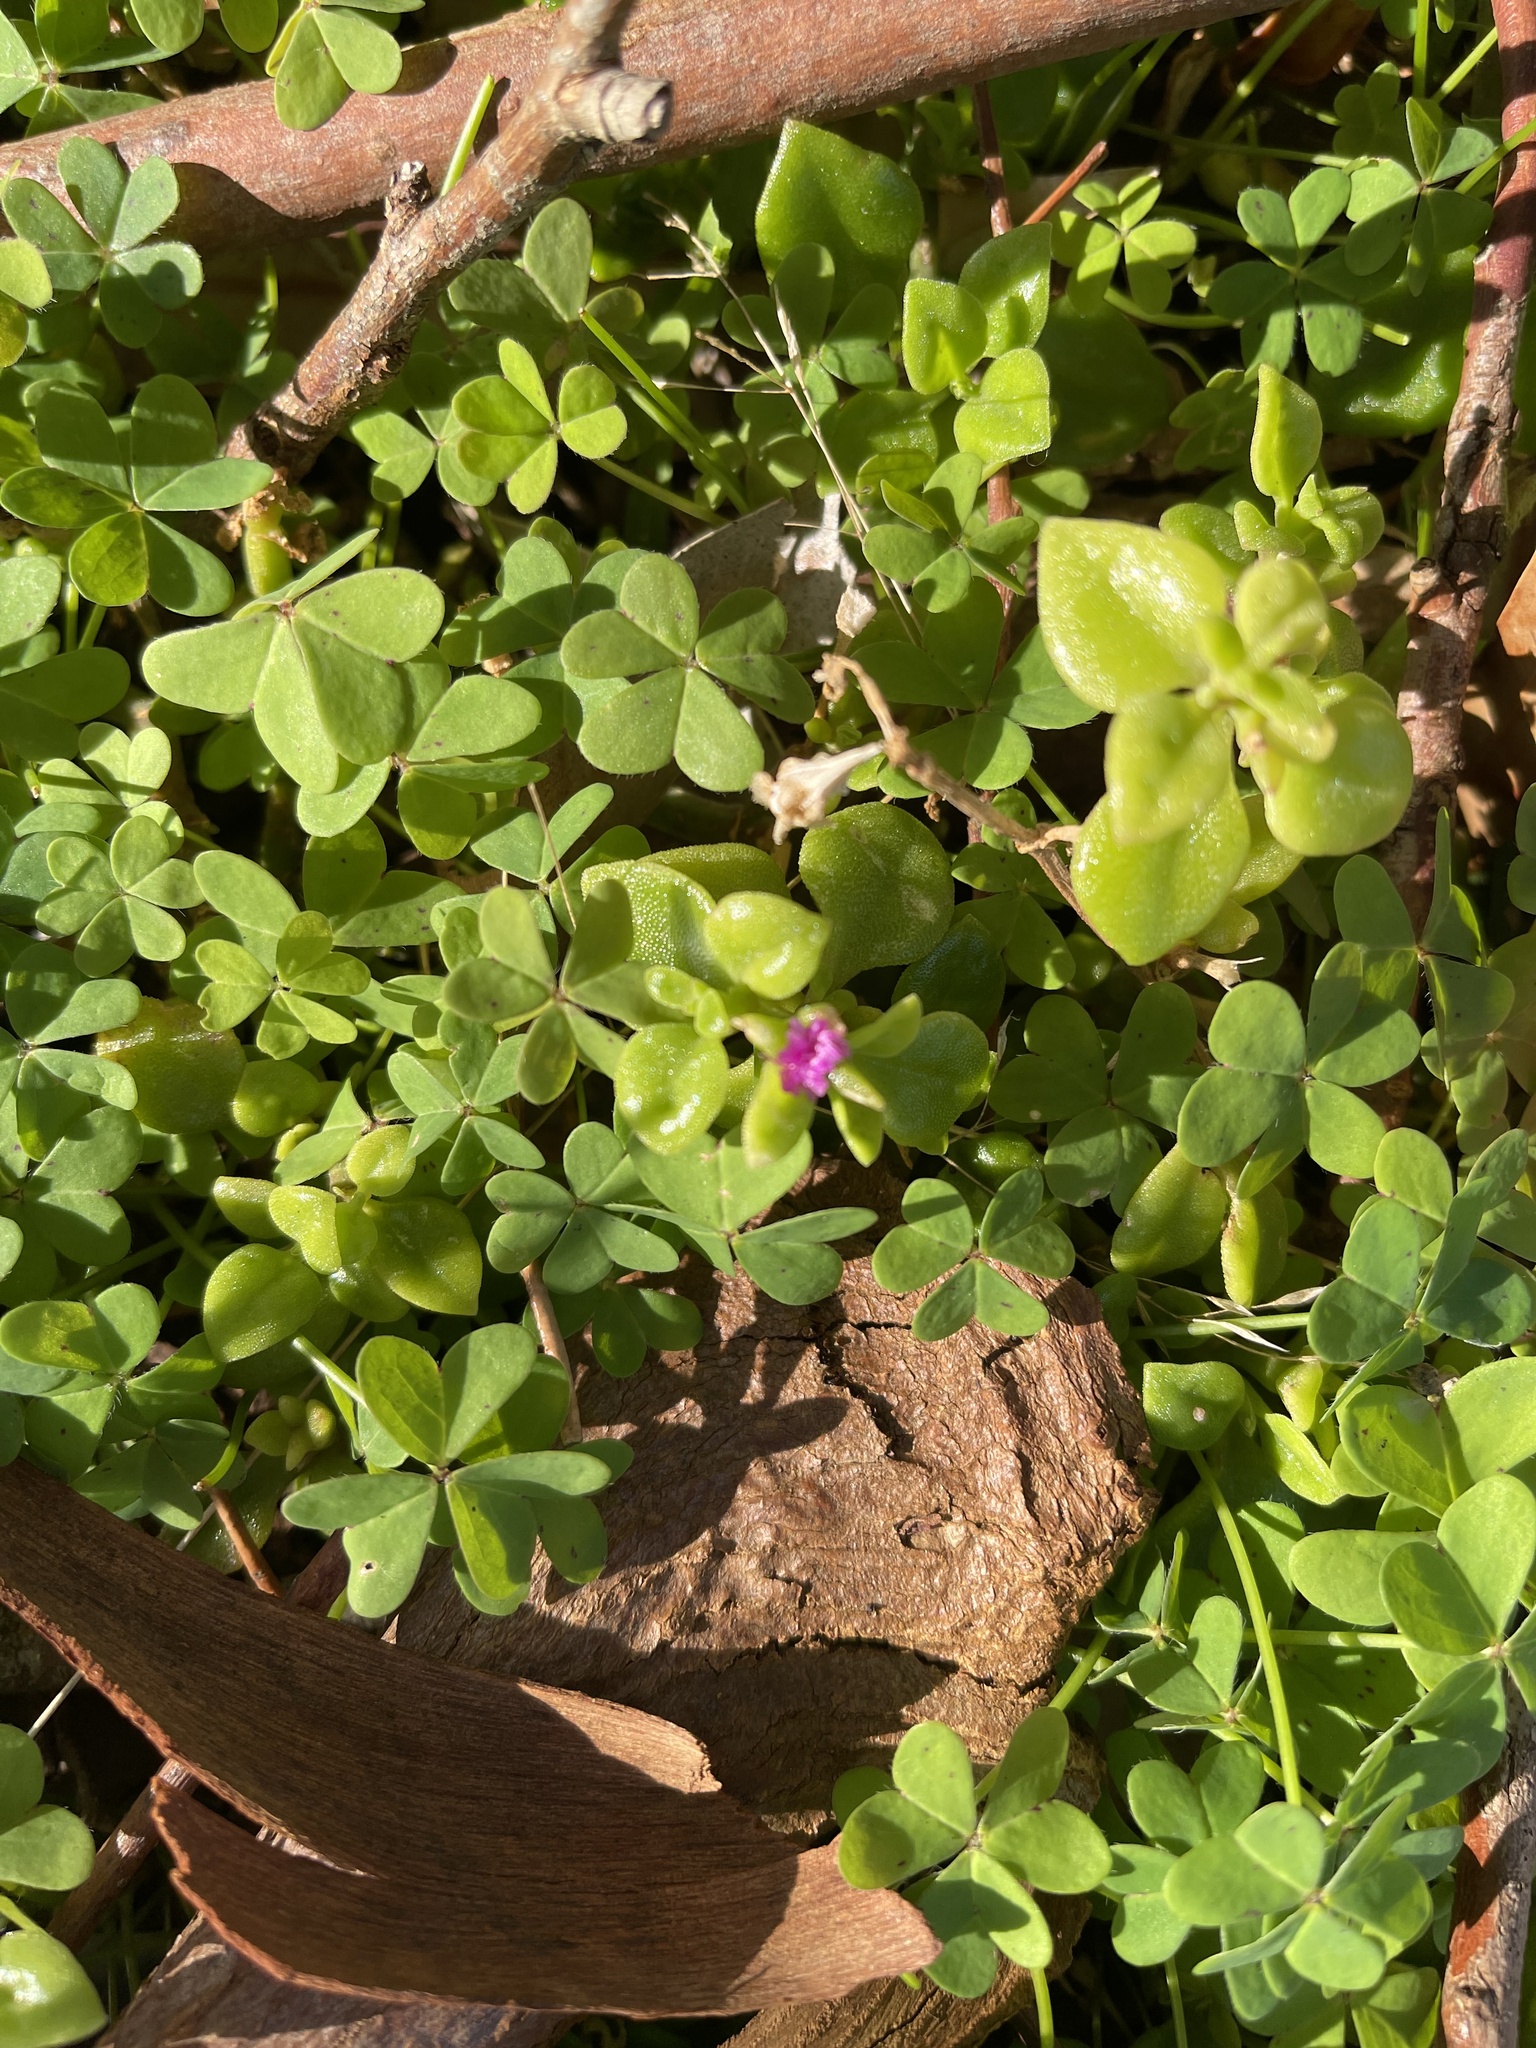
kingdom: Plantae
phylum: Tracheophyta
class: Magnoliopsida
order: Caryophyllales
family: Aizoaceae
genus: Mesembryanthemum
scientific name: Mesembryanthemum cordifolium
